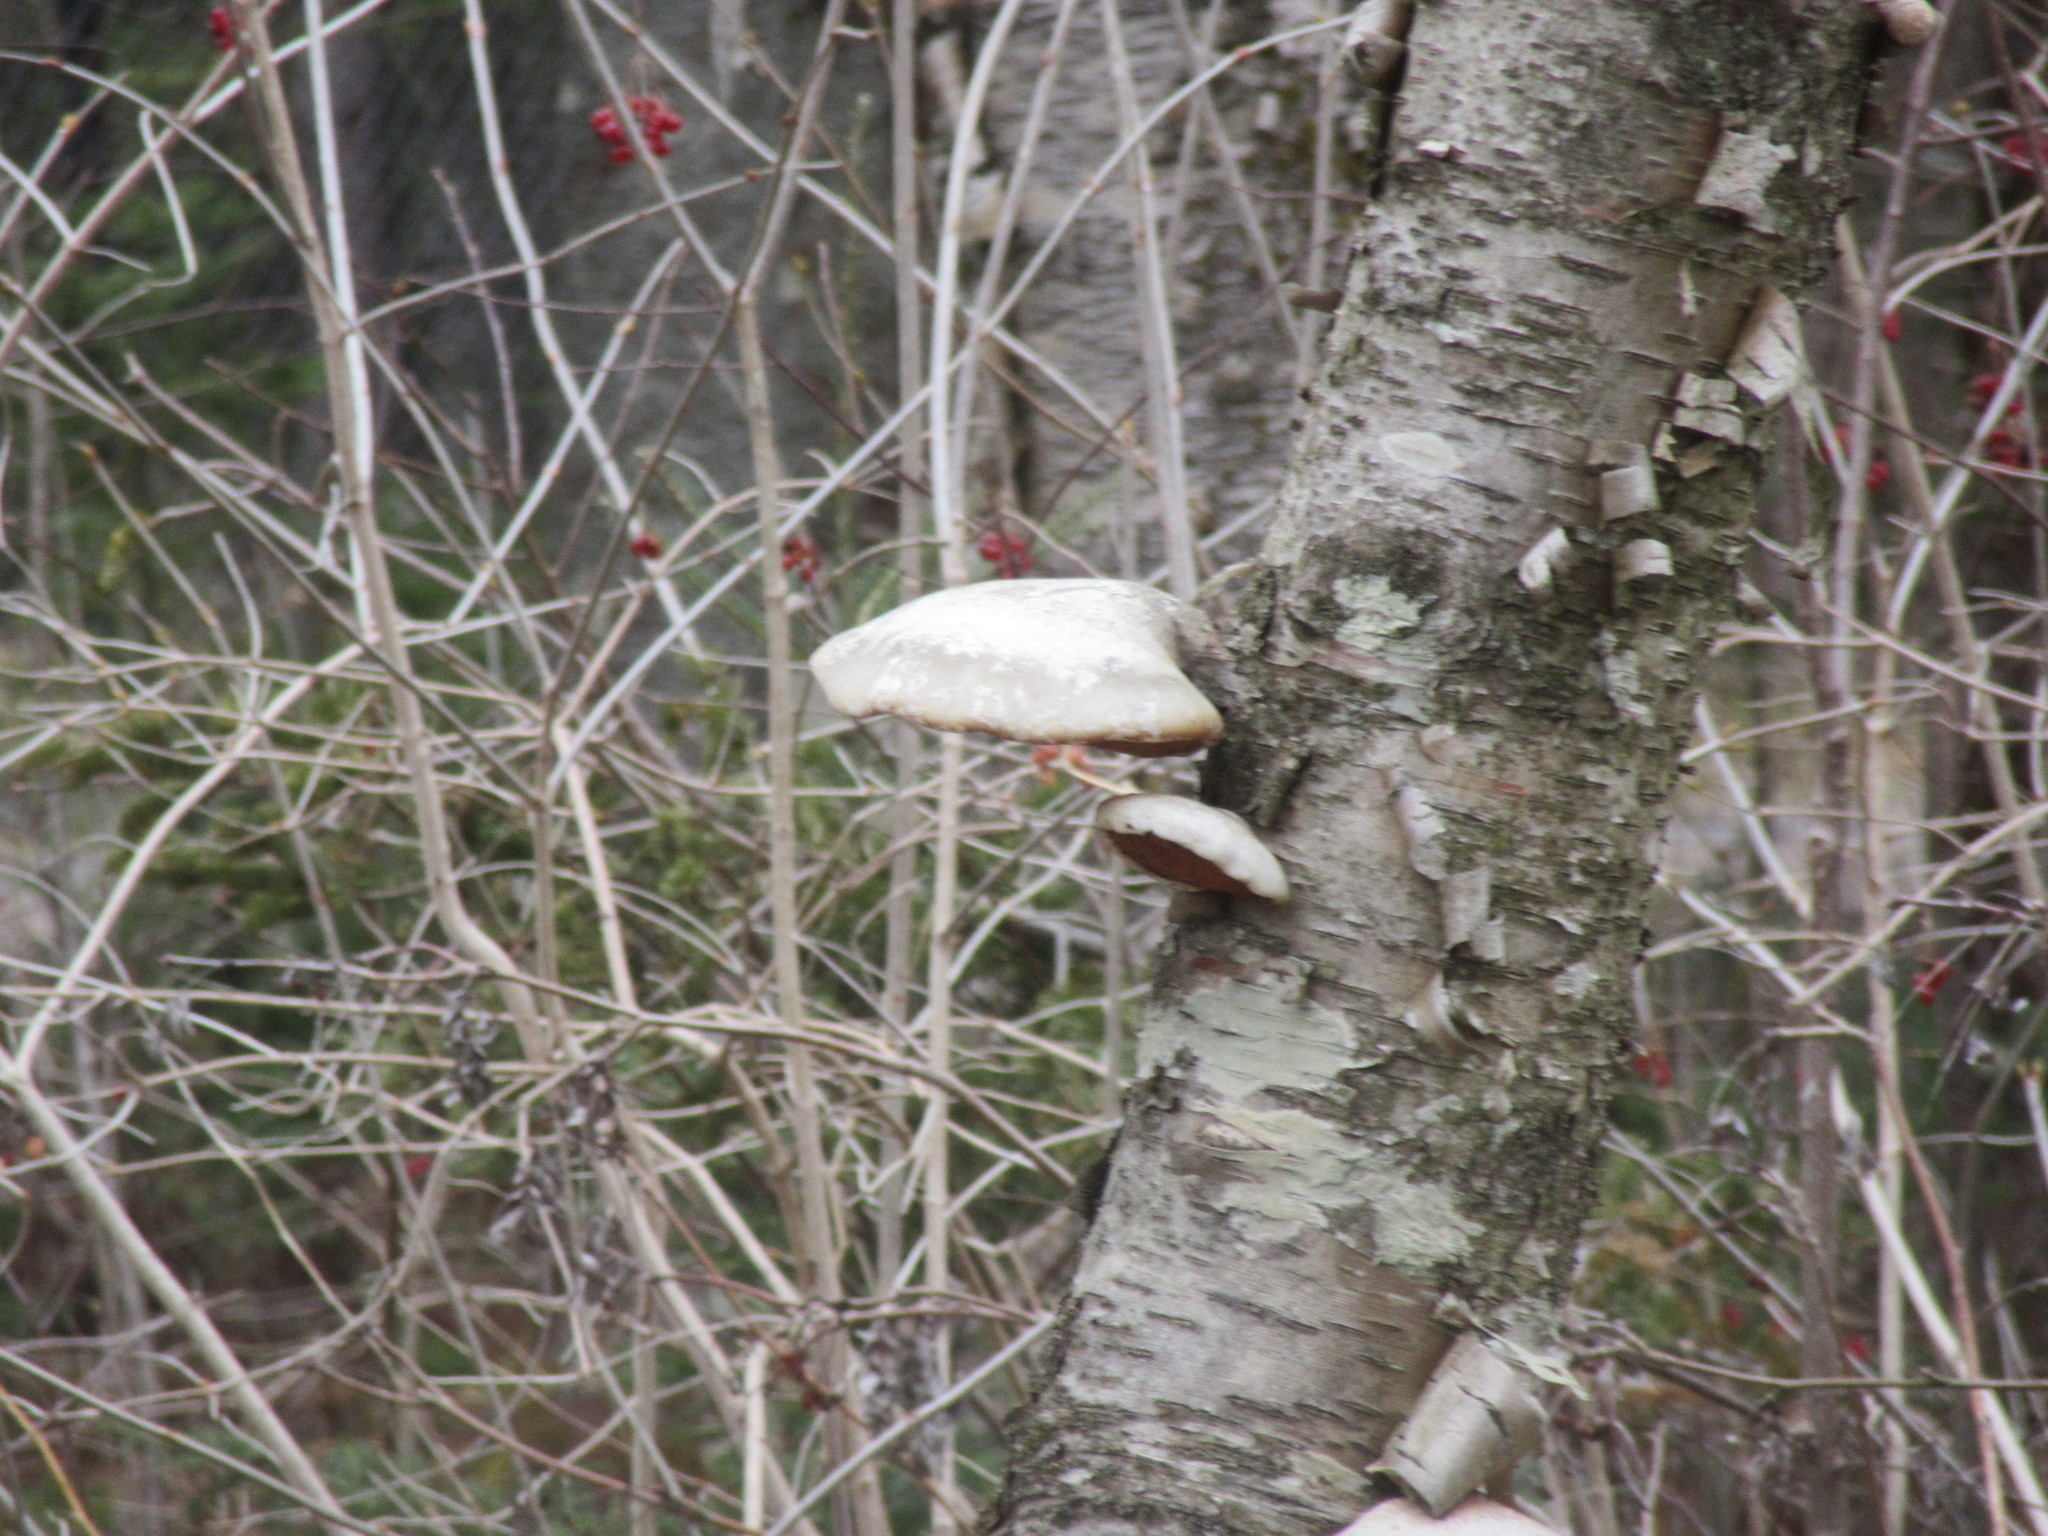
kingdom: Fungi
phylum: Basidiomycota
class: Agaricomycetes
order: Polyporales
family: Fomitopsidaceae
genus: Fomitopsis
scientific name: Fomitopsis betulina
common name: Birch polypore
